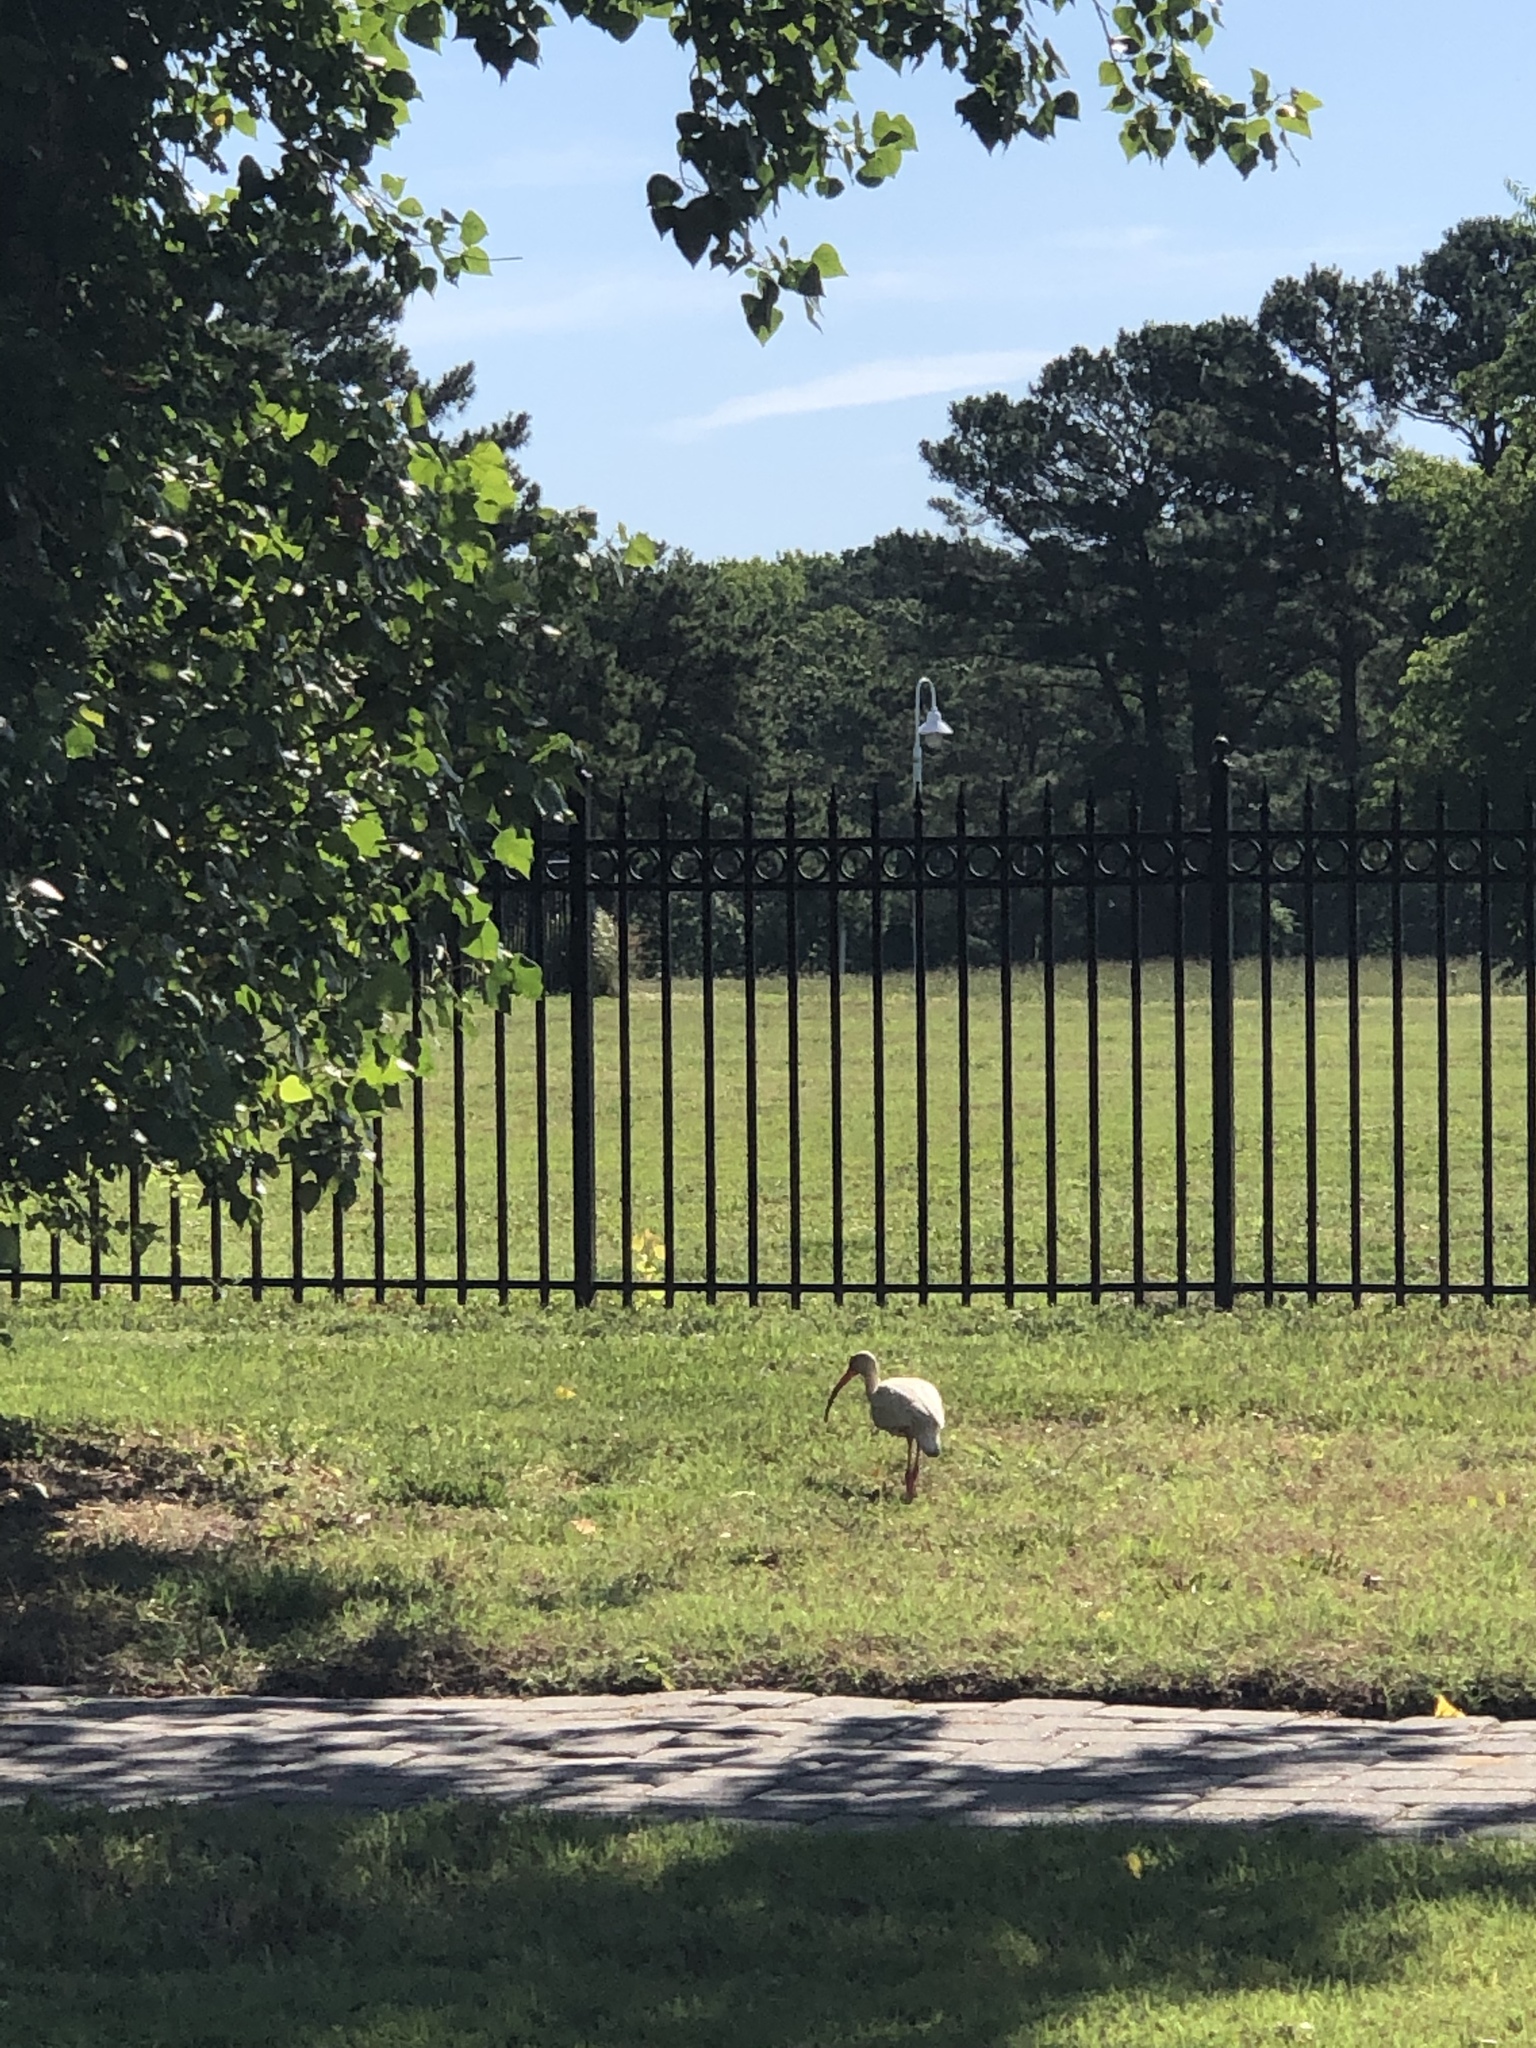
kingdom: Animalia
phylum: Chordata
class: Aves
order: Pelecaniformes
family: Threskiornithidae
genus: Eudocimus
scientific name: Eudocimus albus
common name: White ibis
